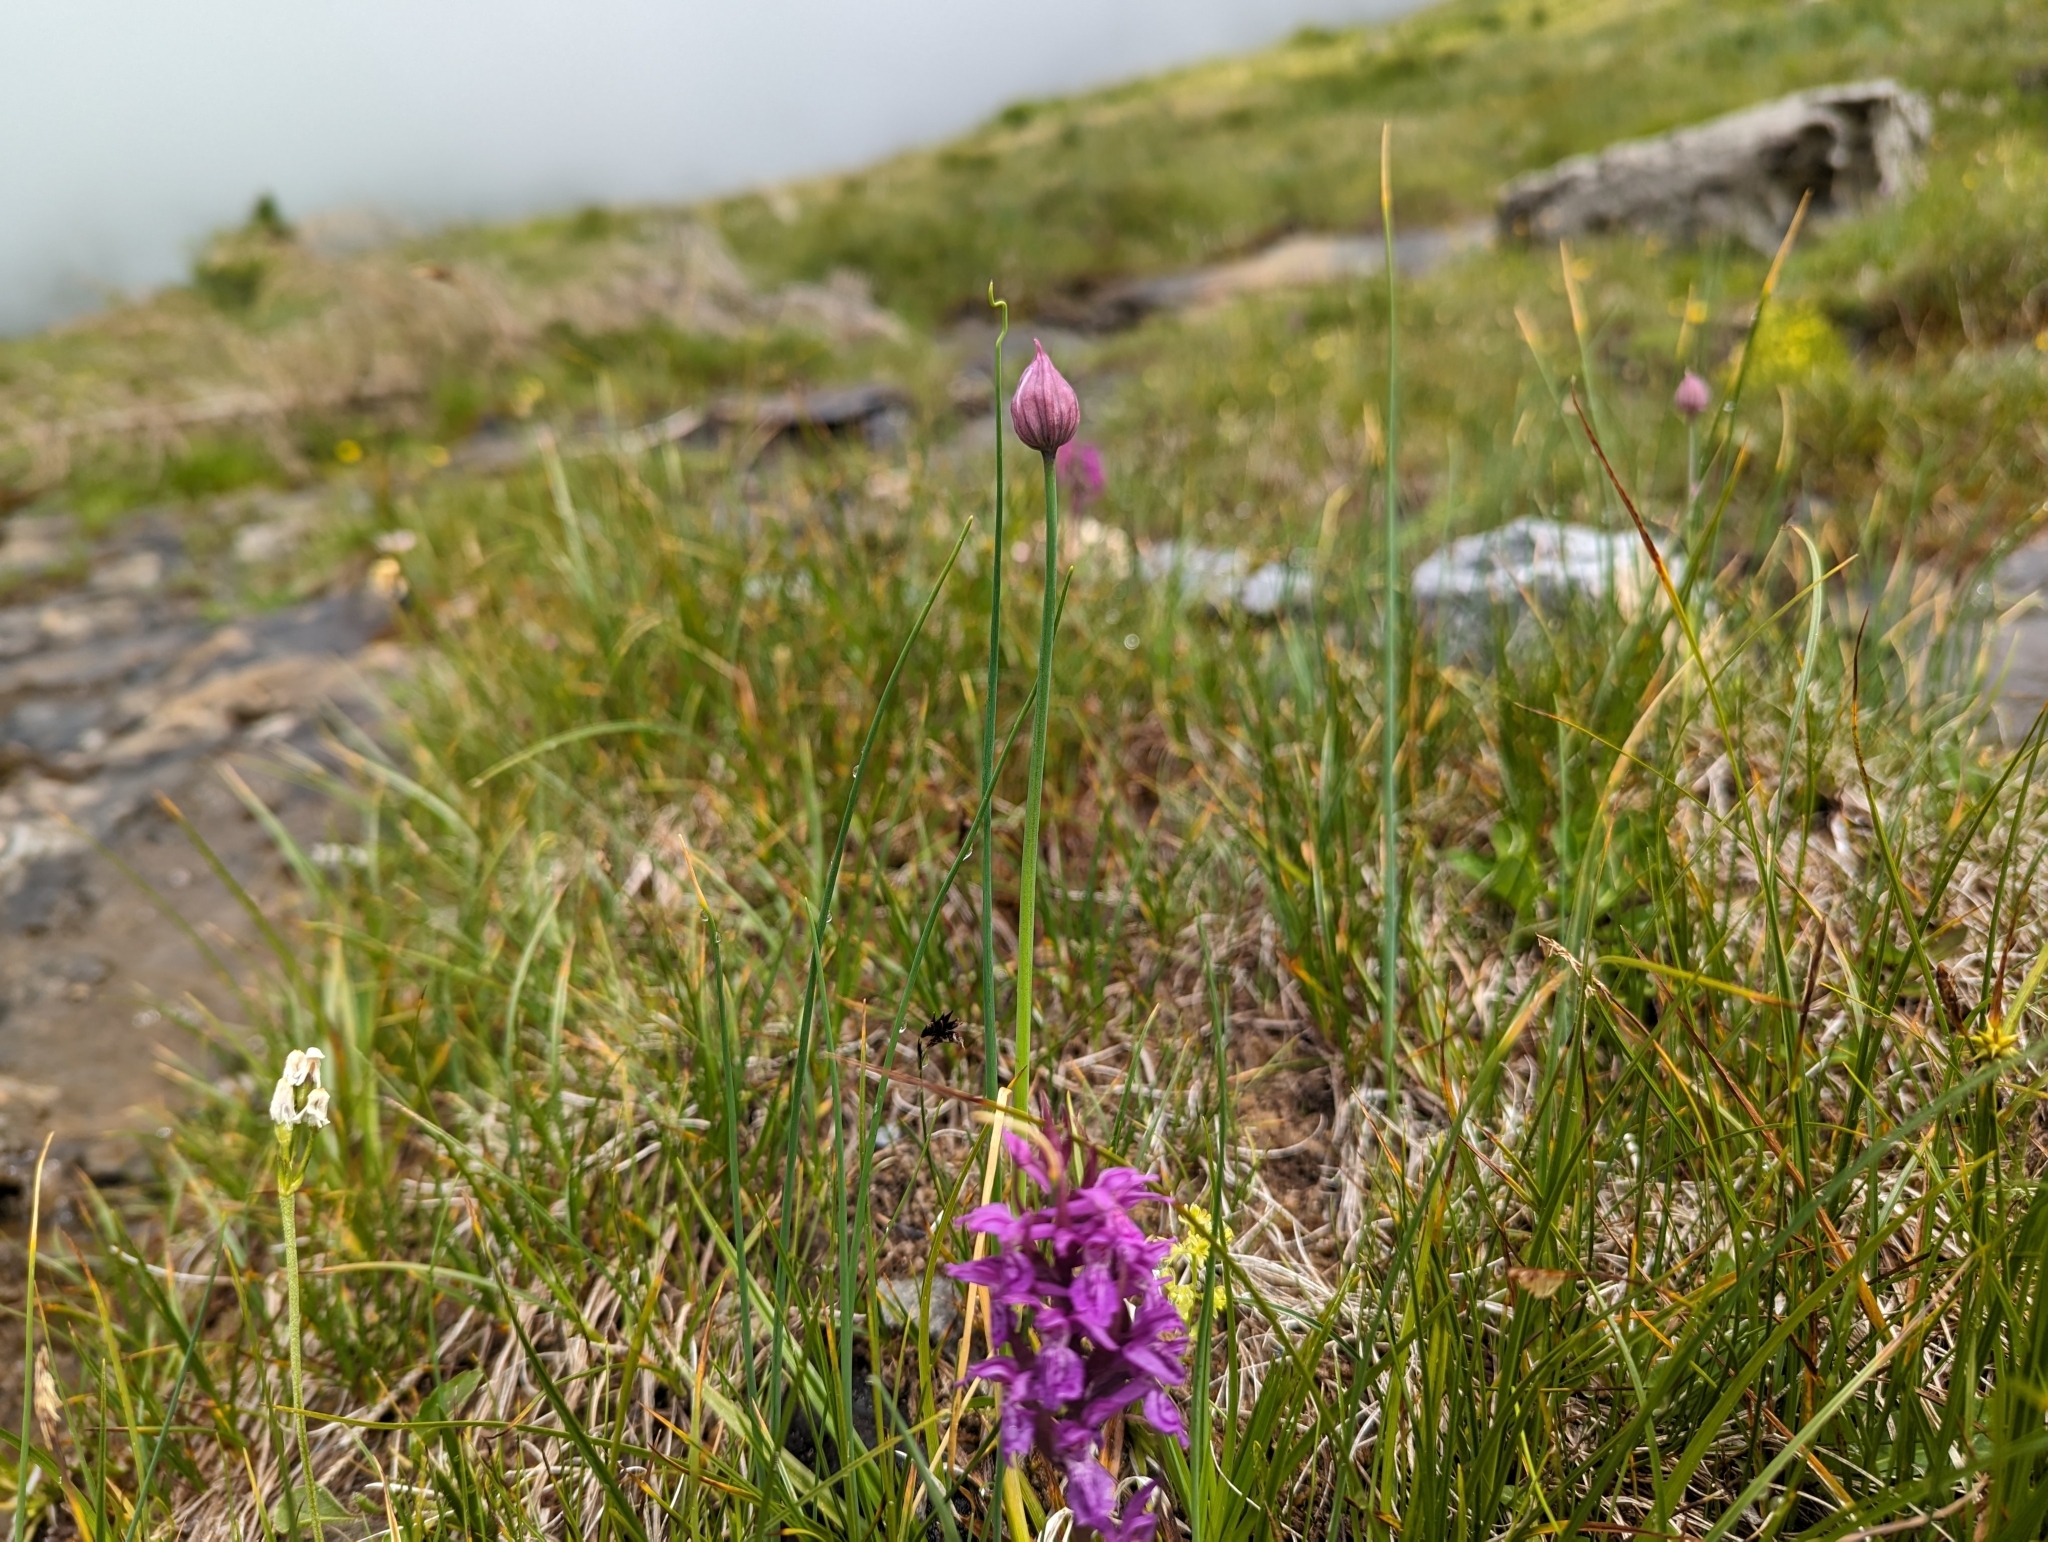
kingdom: Plantae
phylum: Tracheophyta
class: Liliopsida
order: Asparagales
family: Amaryllidaceae
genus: Allium
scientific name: Allium schoenoprasum
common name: Chives
